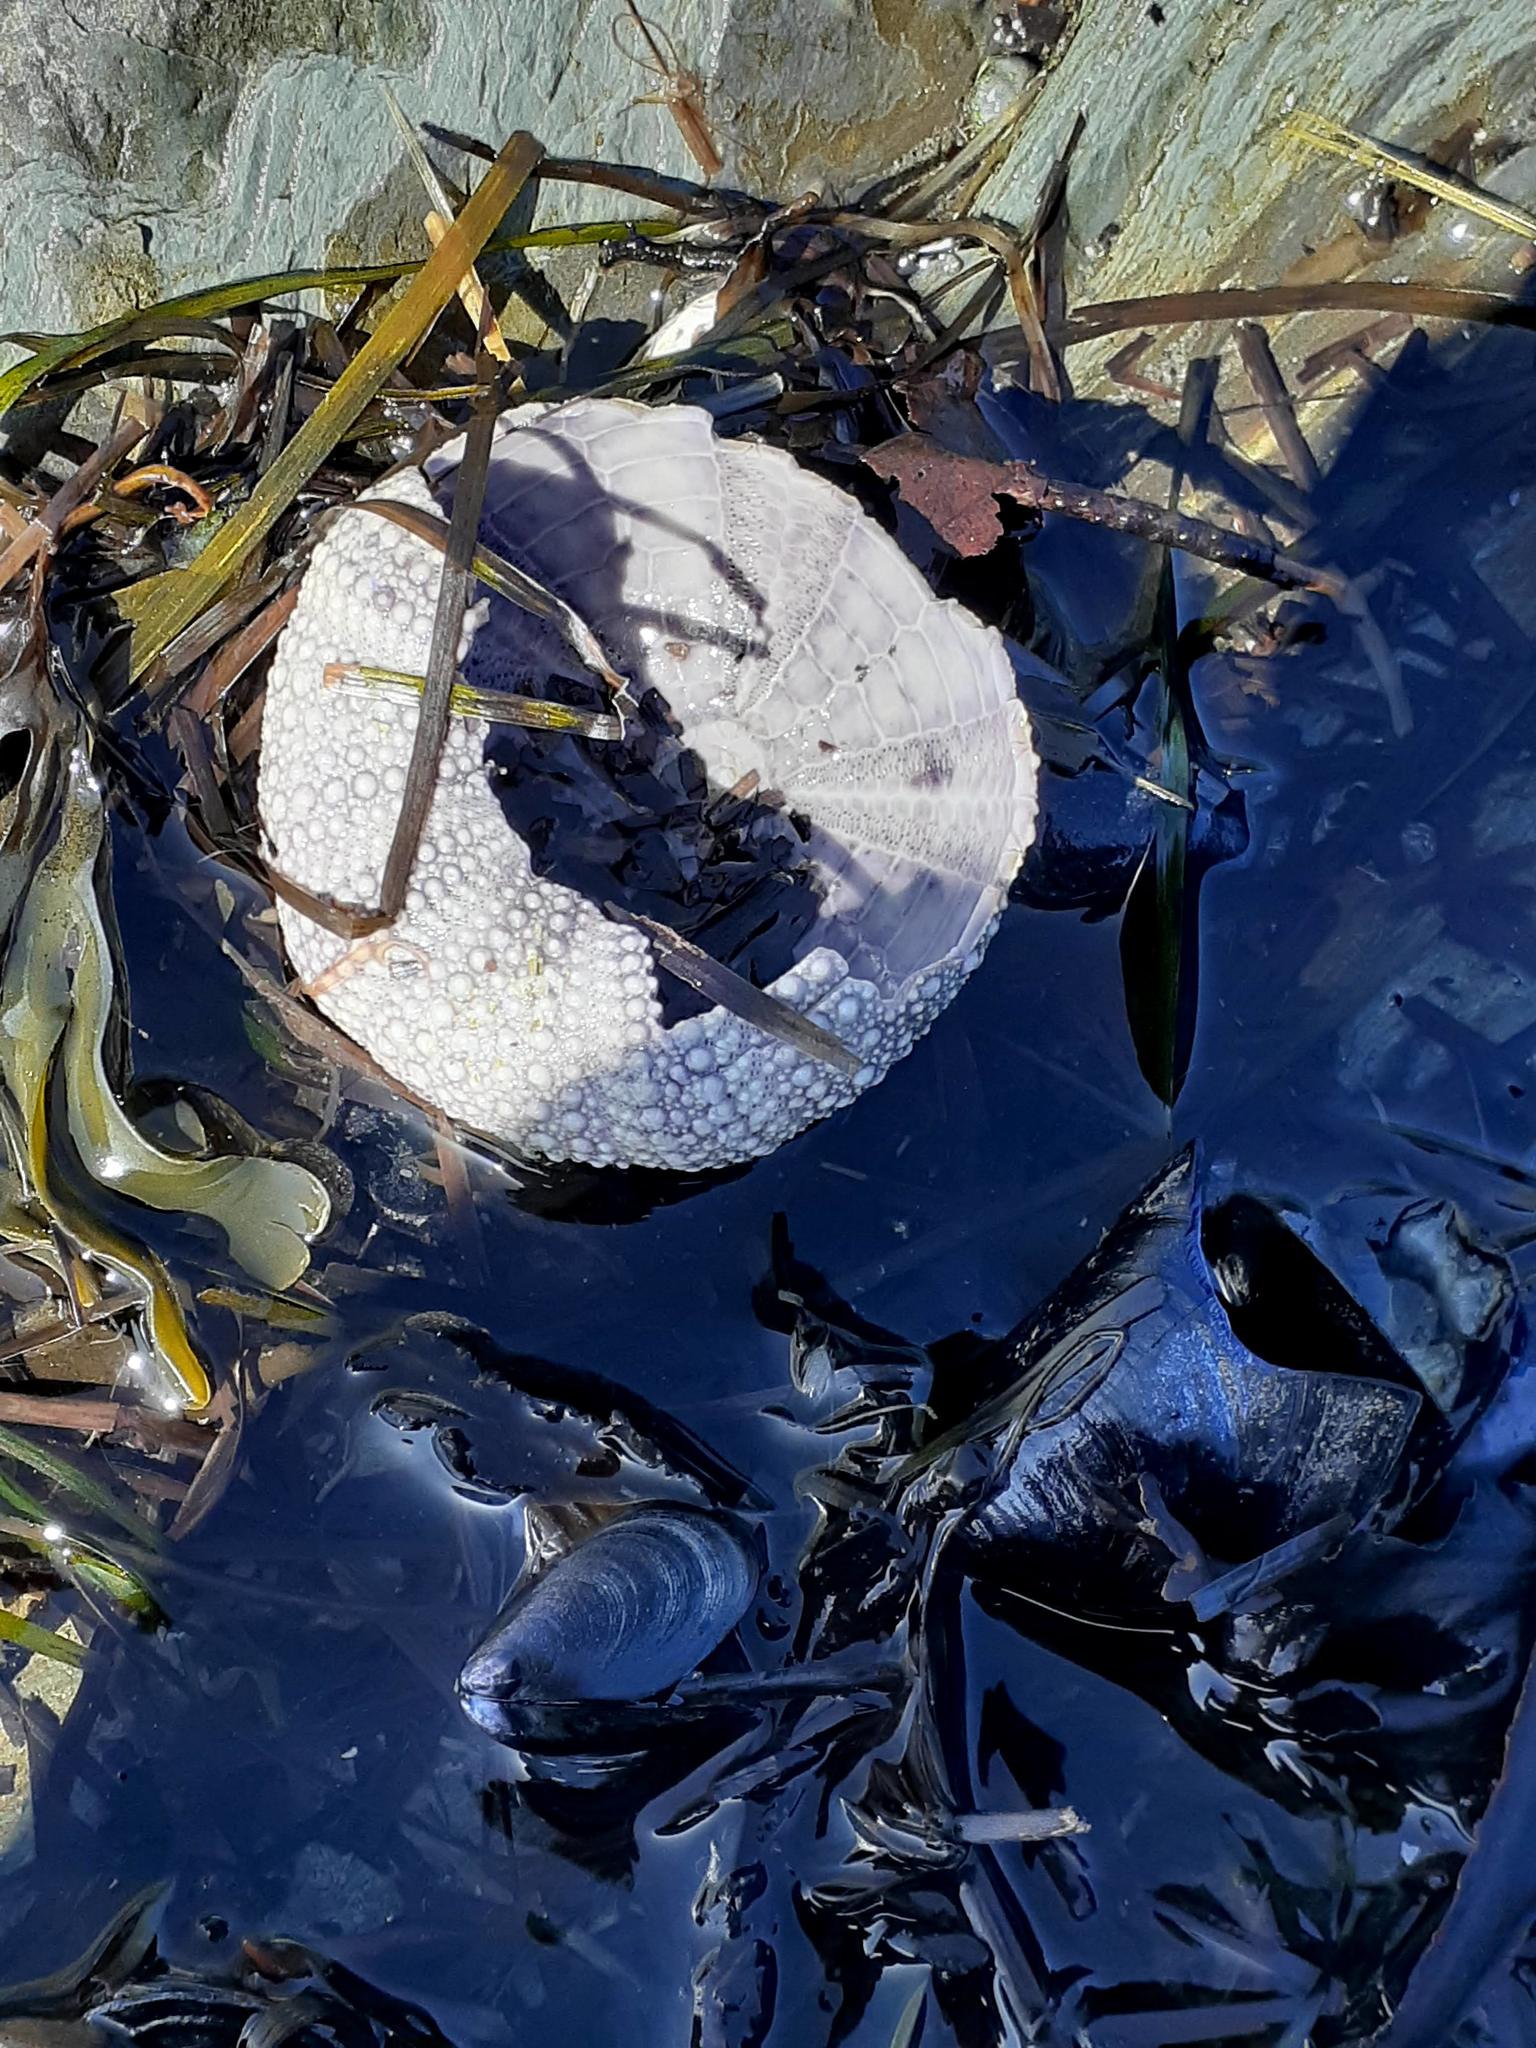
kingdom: Animalia
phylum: Echinodermata
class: Echinoidea
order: Camarodonta
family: Strongylocentrotidae
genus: Strongylocentrotus
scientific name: Strongylocentrotus droebachiensis
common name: Northern sea urchin
